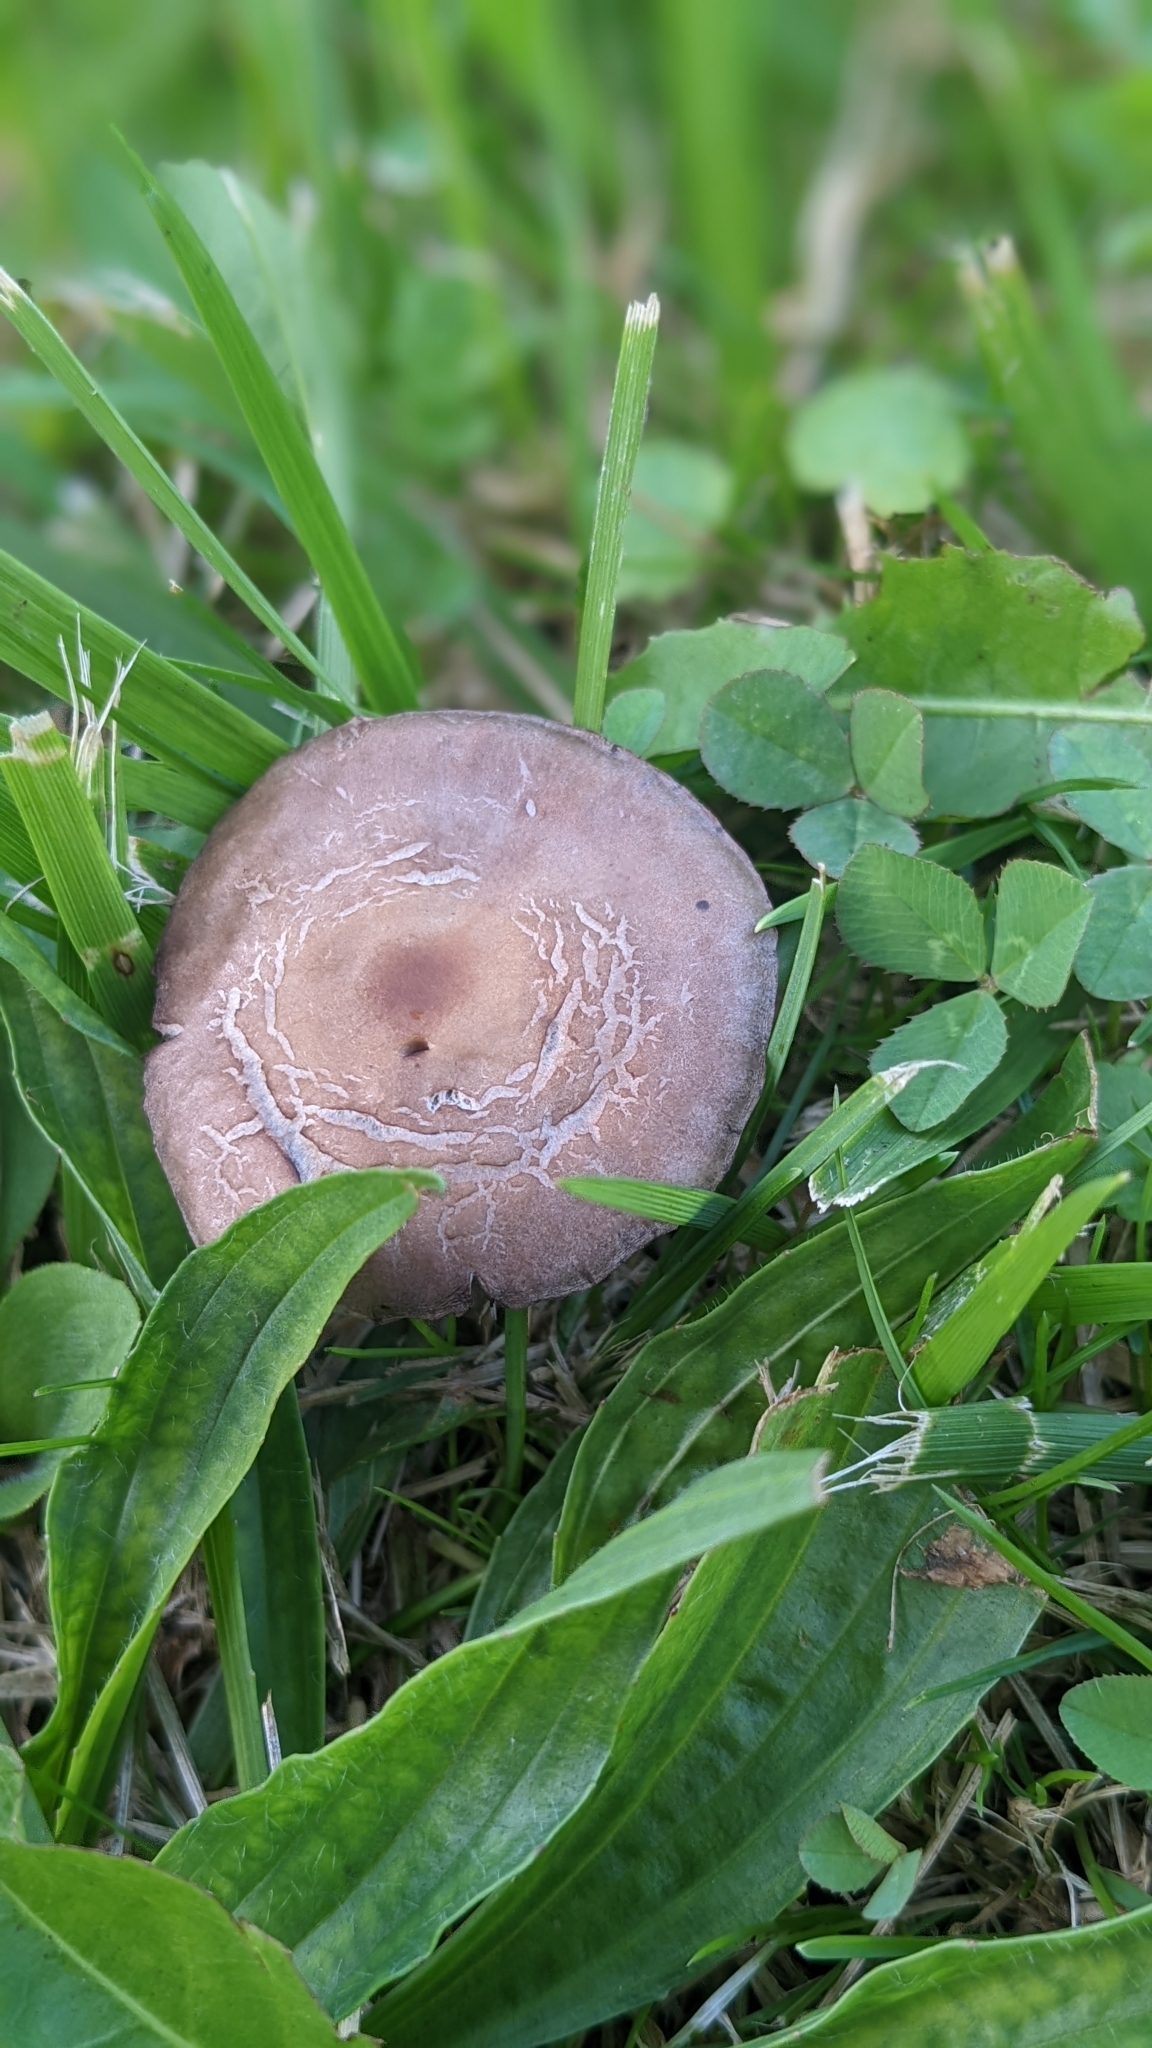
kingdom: Fungi
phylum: Basidiomycota
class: Agaricomycetes
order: Agaricales
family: Bolbitiaceae
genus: Panaeolina
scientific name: Panaeolina foenisecii
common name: Brown hay cap
